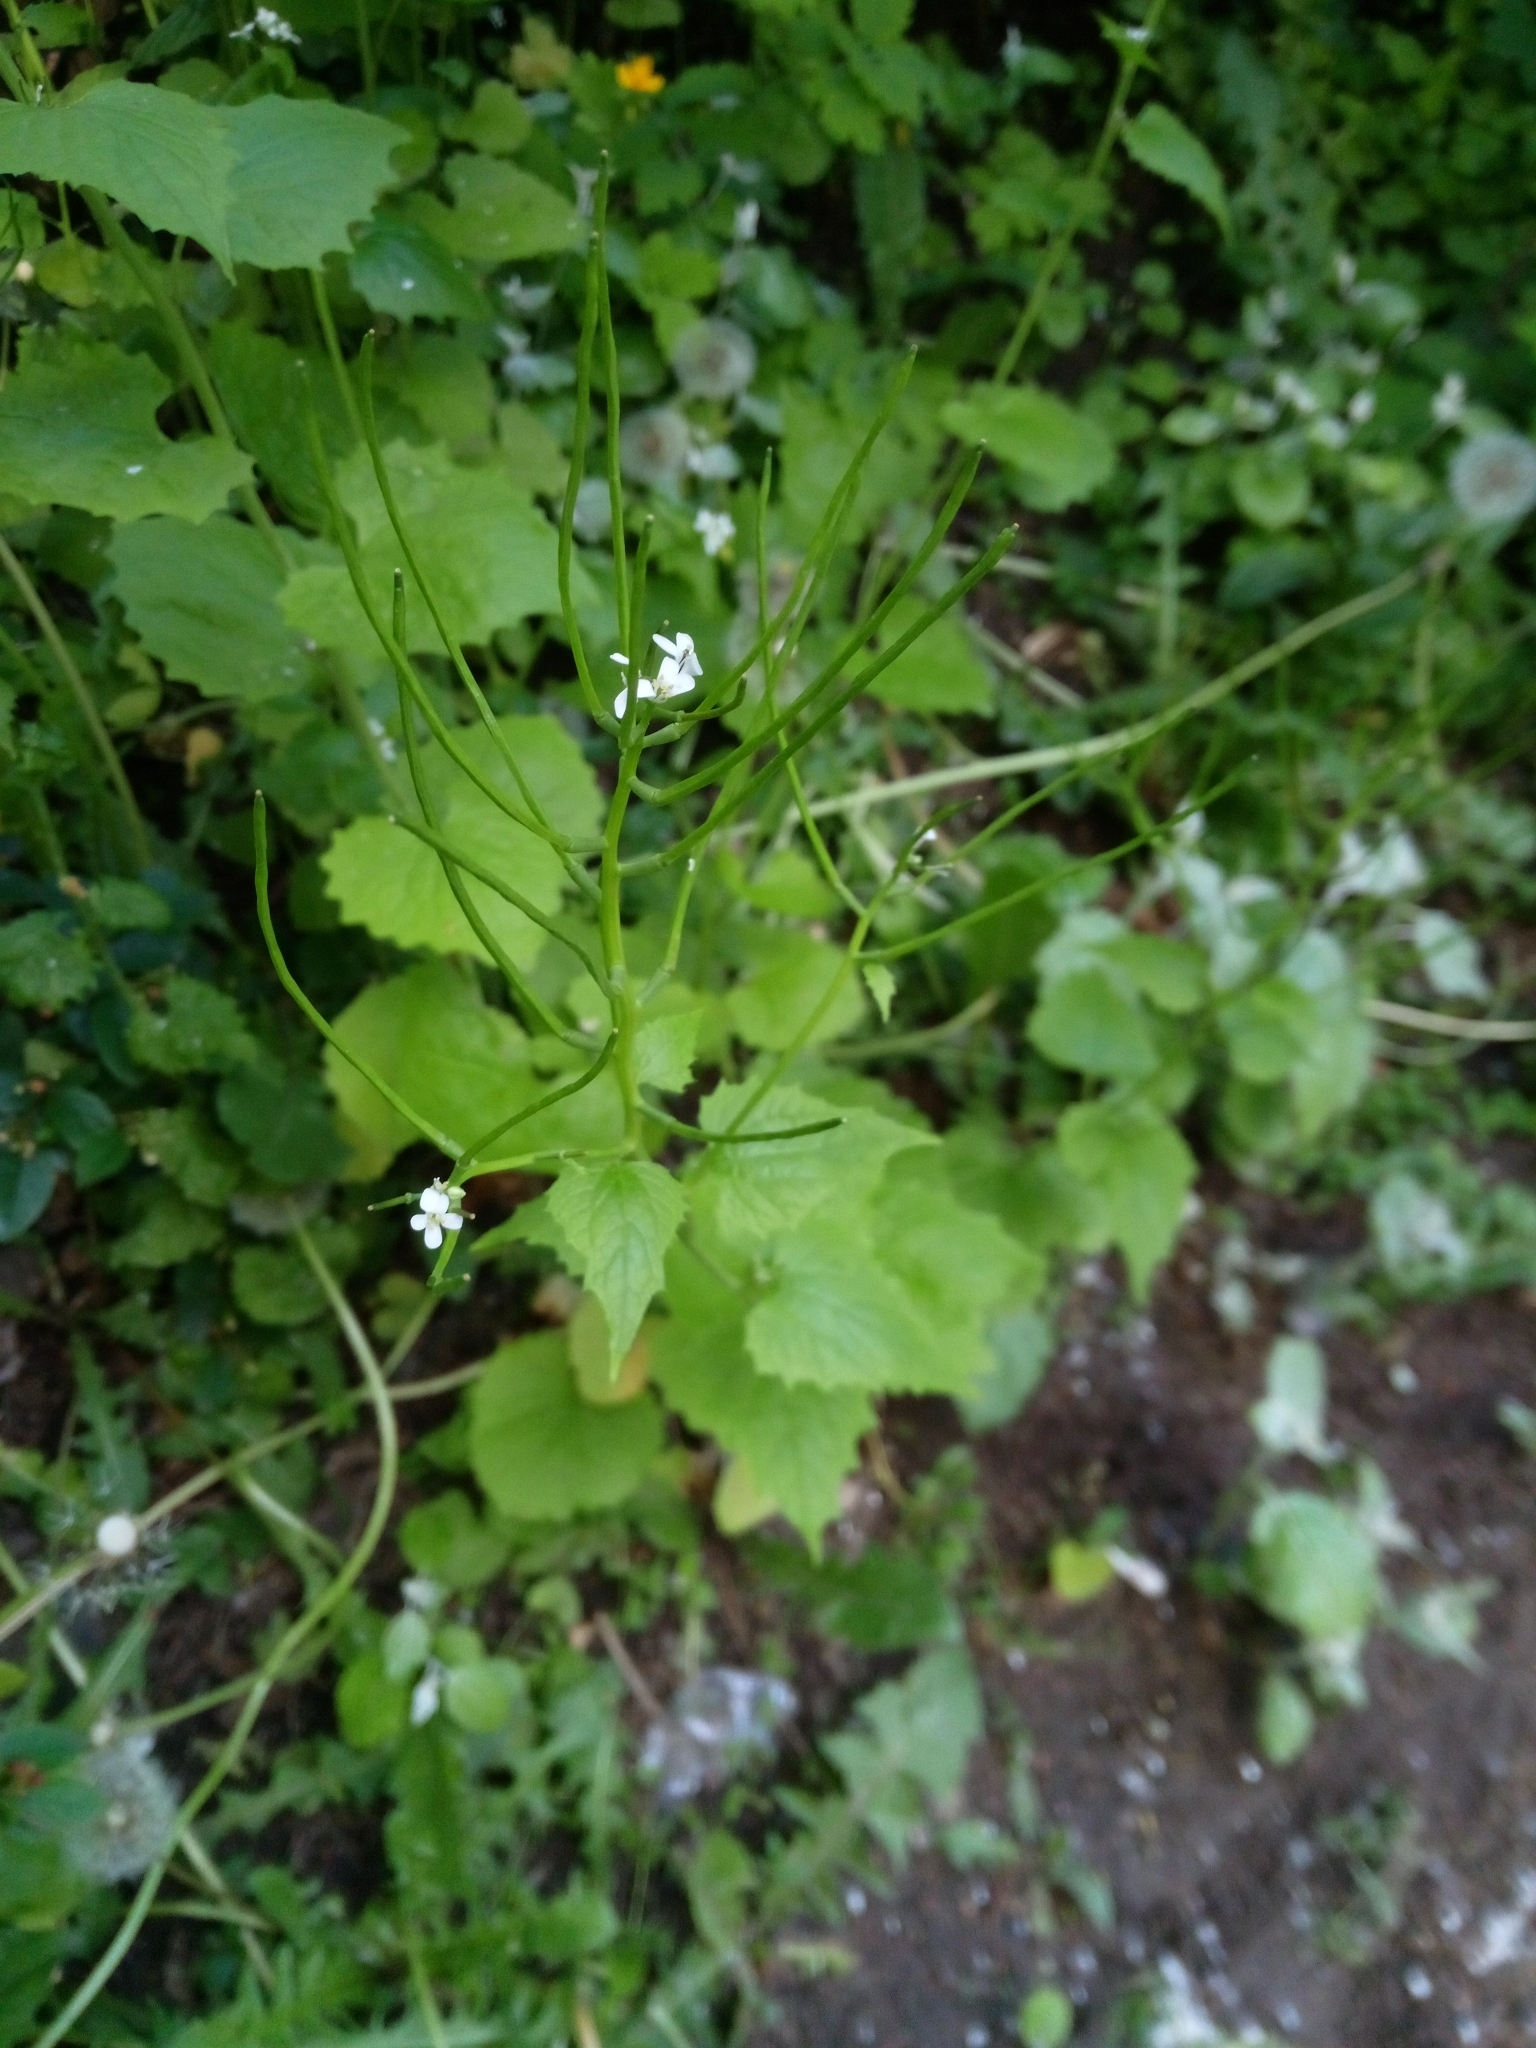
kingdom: Plantae
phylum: Tracheophyta
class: Magnoliopsida
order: Brassicales
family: Brassicaceae
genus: Alliaria
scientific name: Alliaria petiolata
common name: Garlic mustard
